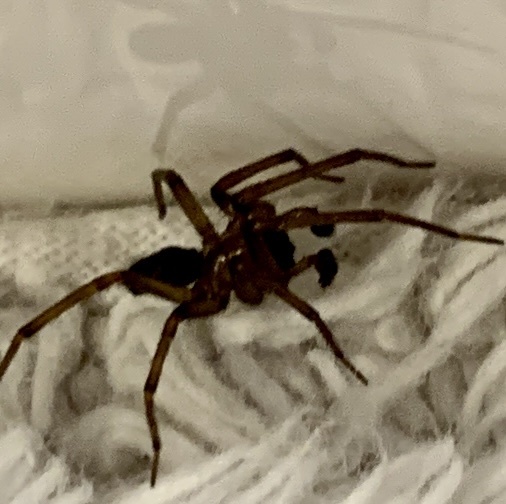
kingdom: Animalia
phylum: Arthropoda
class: Arachnida
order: Araneae
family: Desidae
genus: Metaltella
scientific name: Metaltella simoni
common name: Cribellate spider
